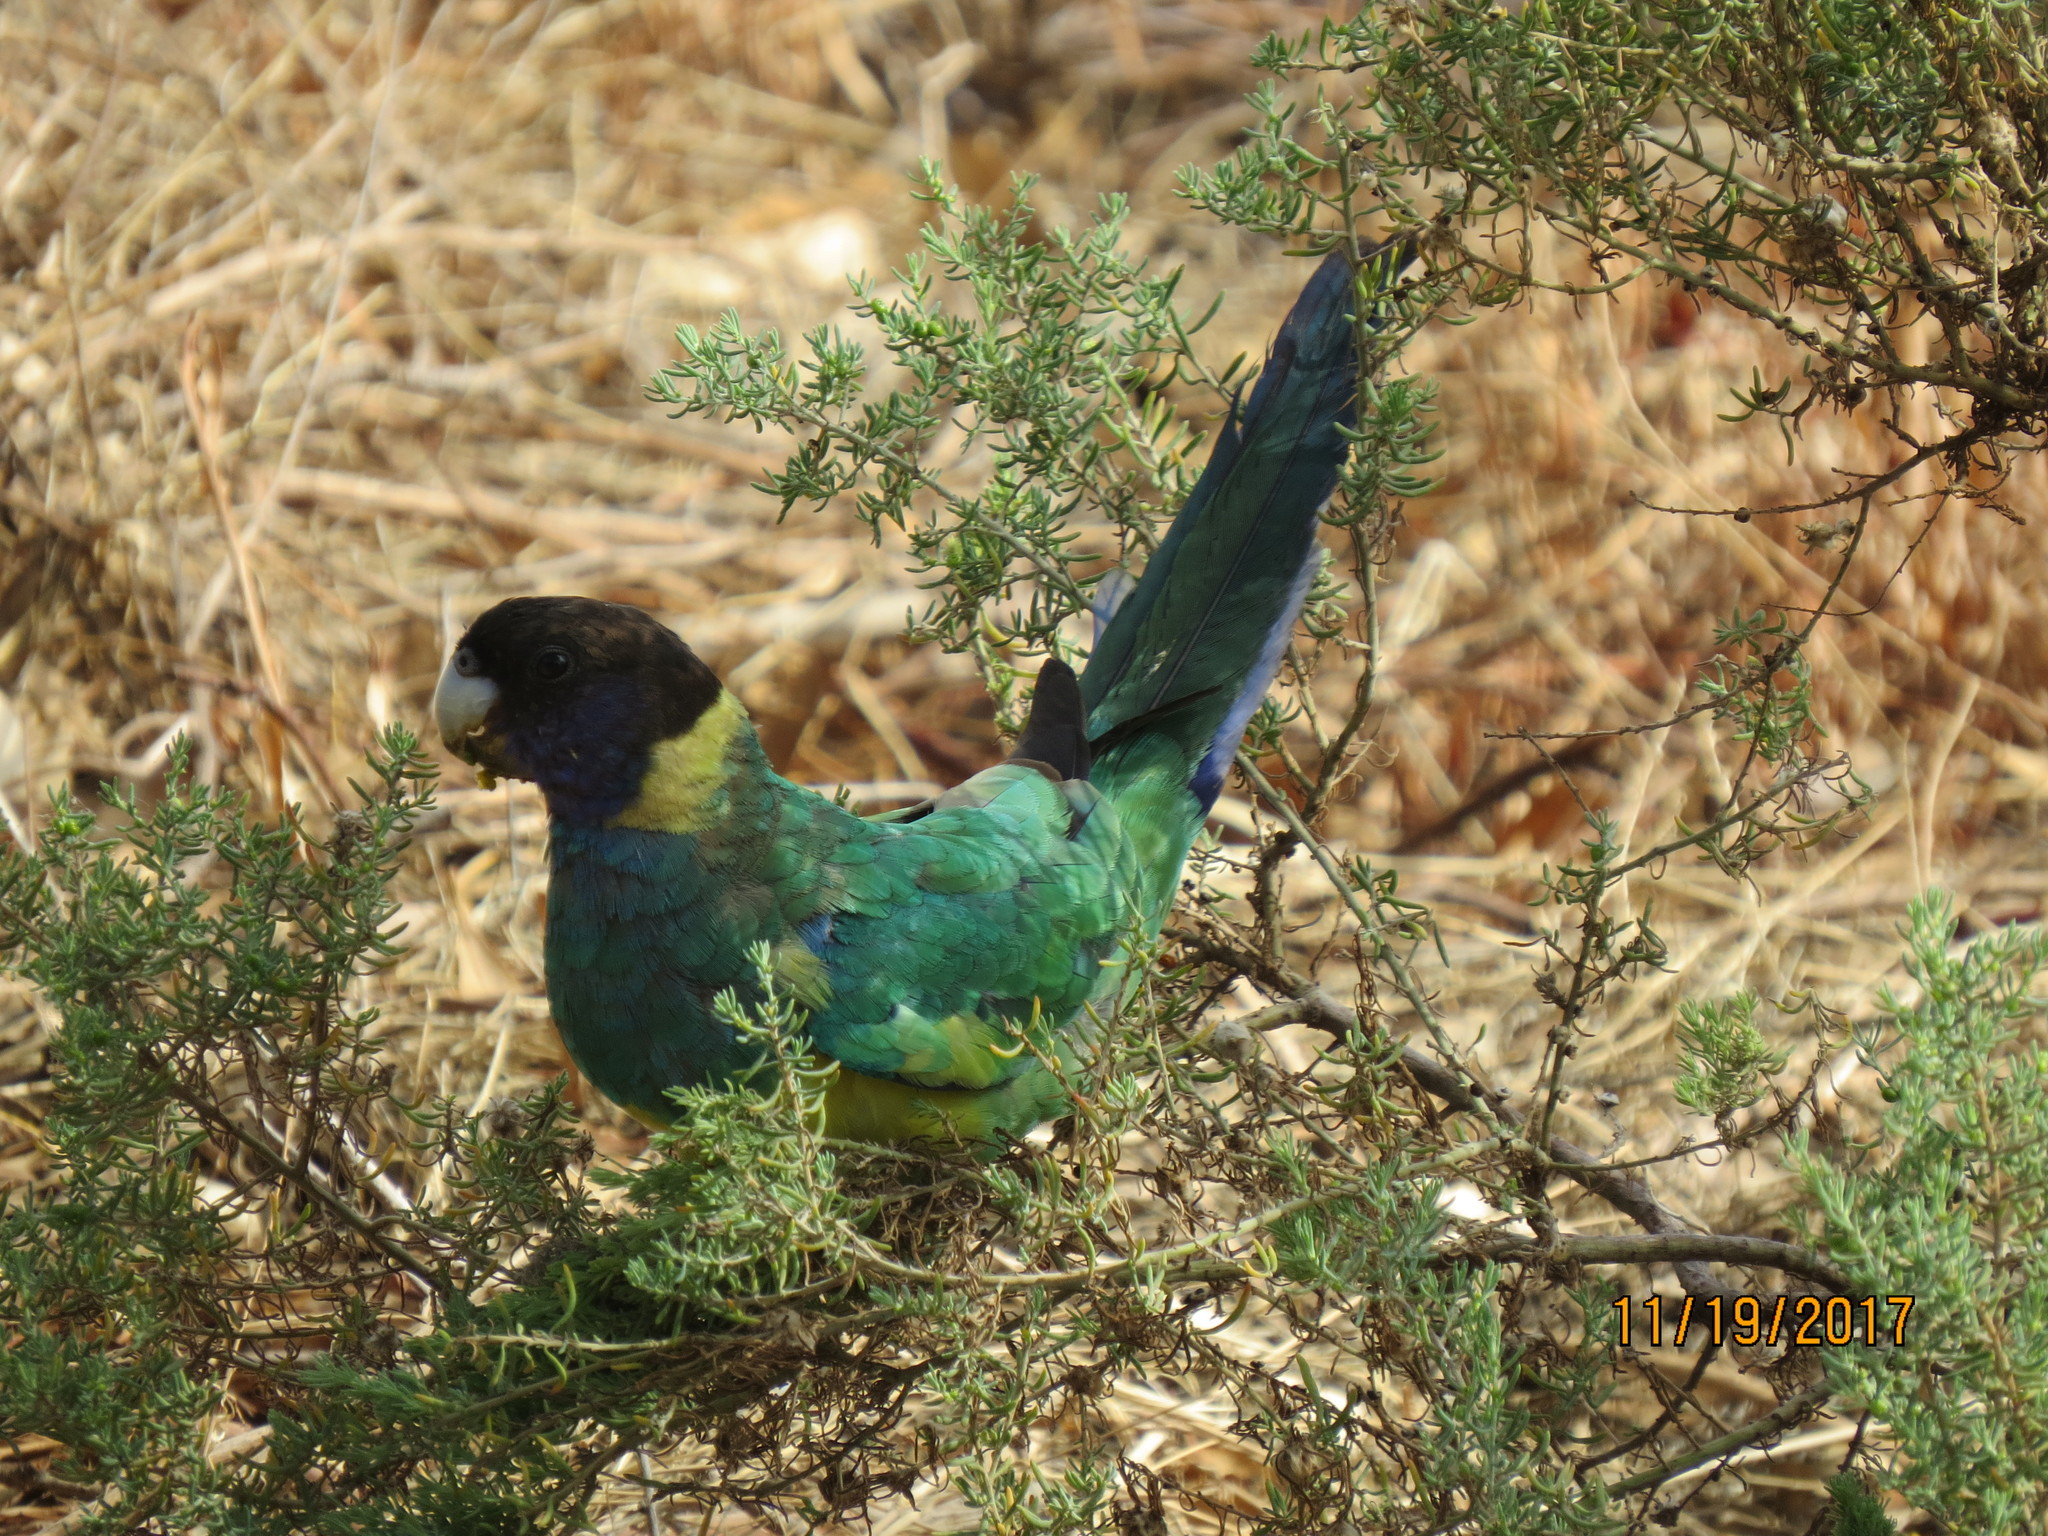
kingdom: Animalia
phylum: Chordata
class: Aves
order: Psittaciformes
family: Psittacidae
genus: Barnardius
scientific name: Barnardius zonarius
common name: Australian ringneck
